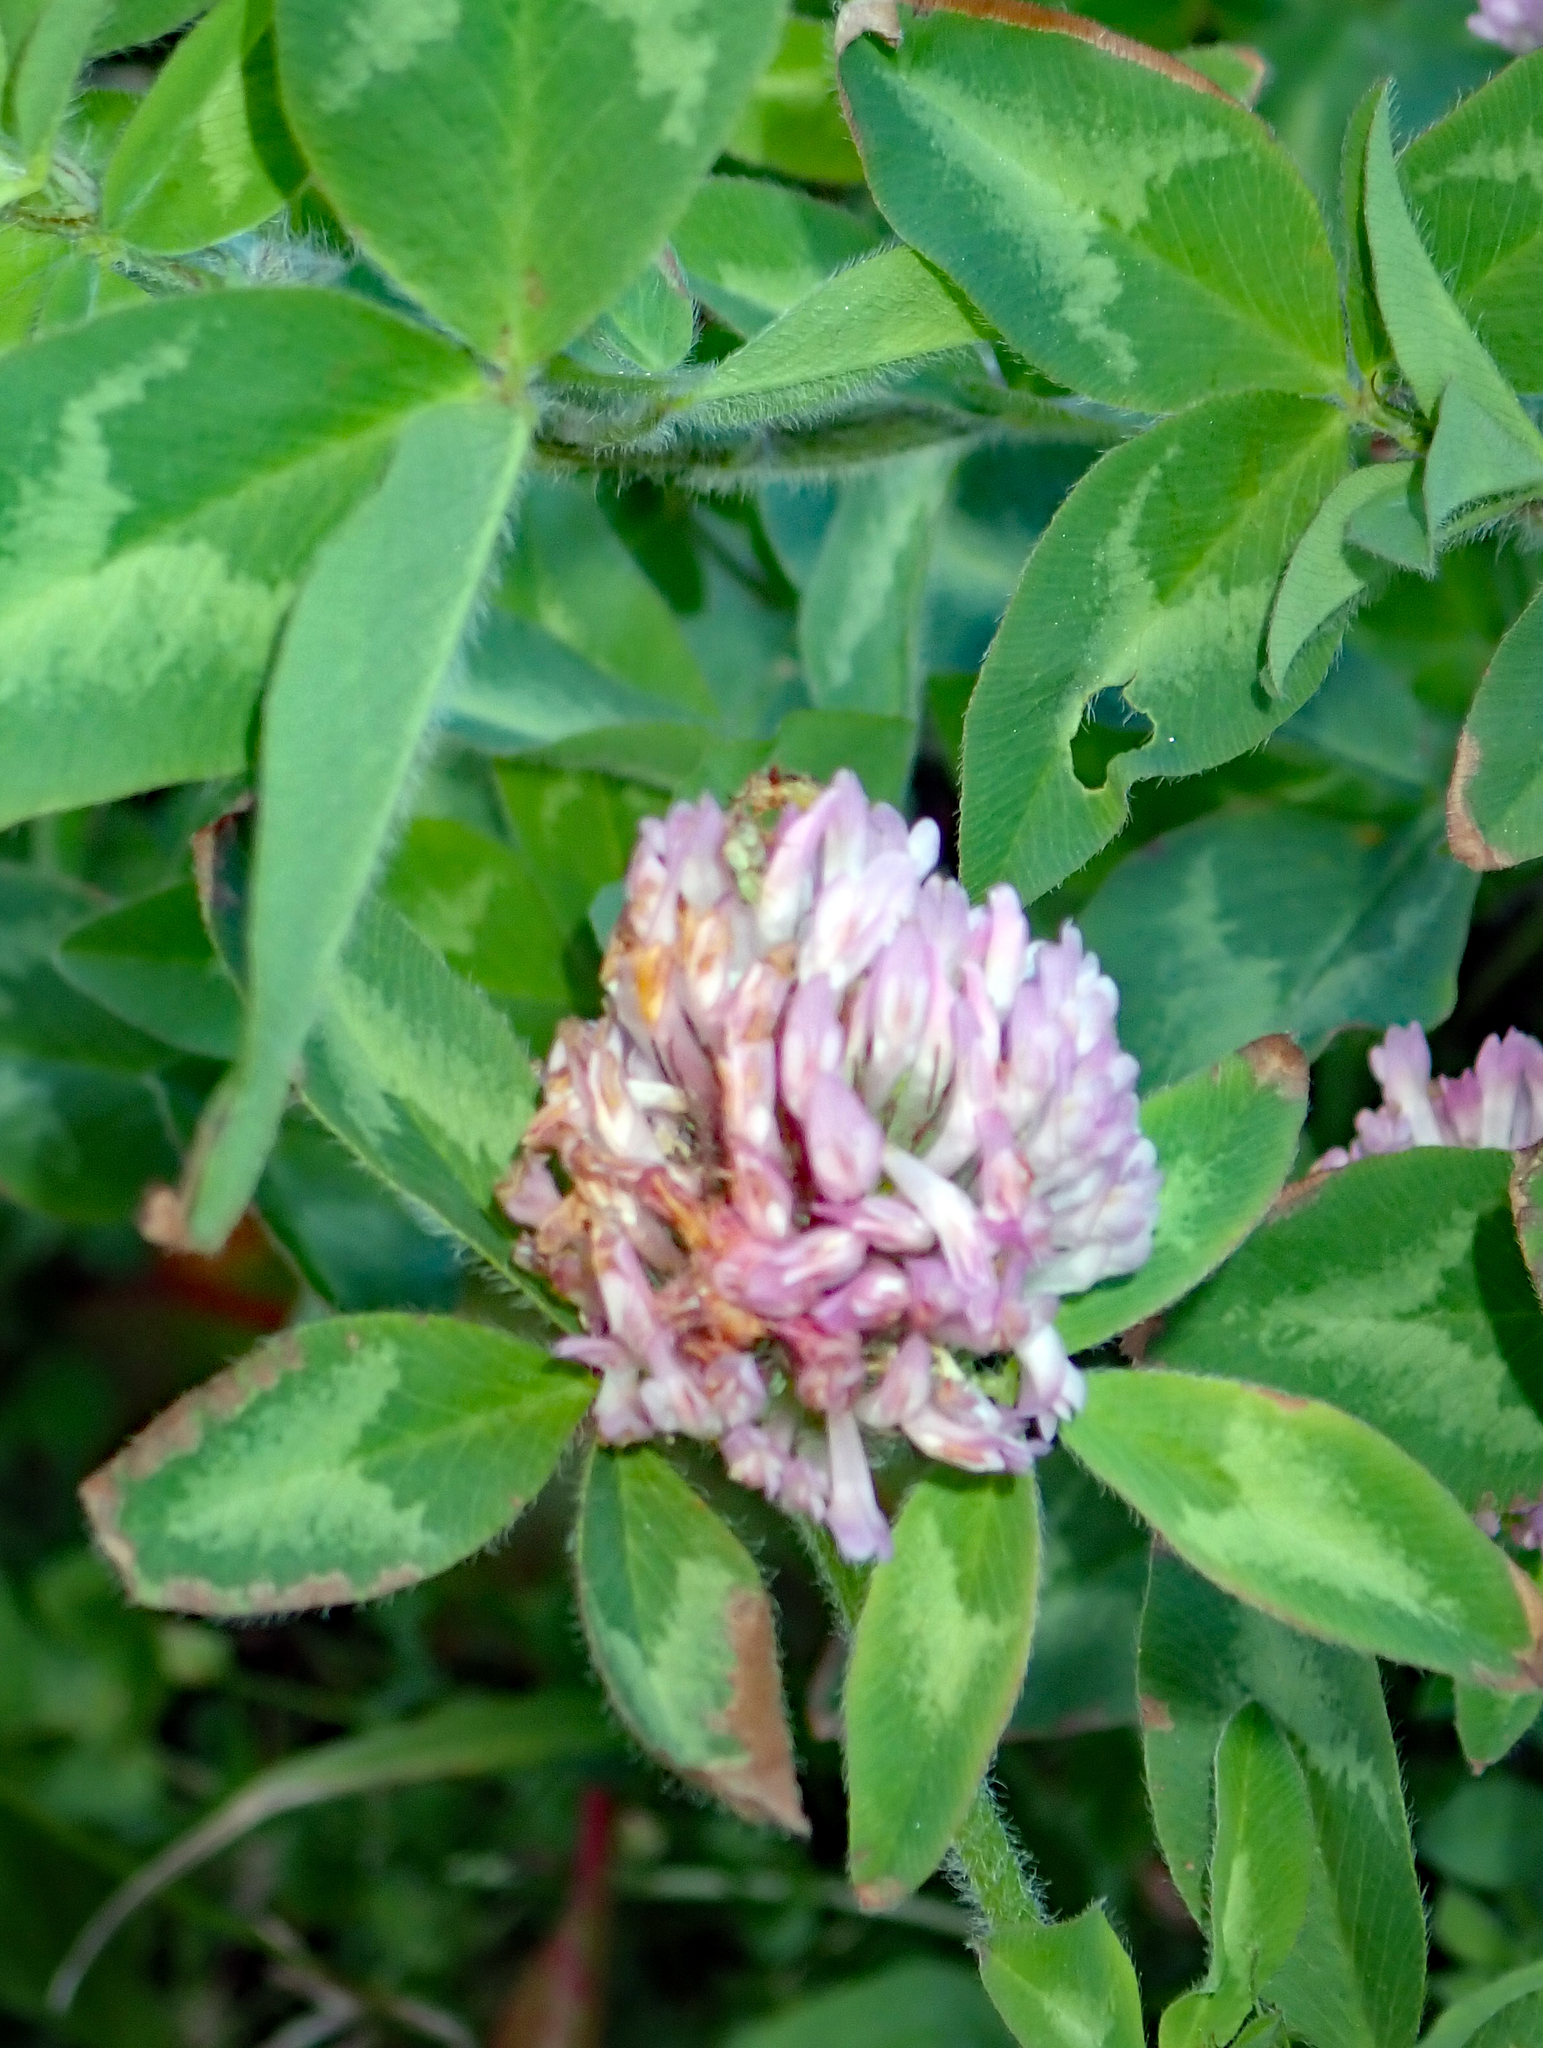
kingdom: Plantae
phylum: Tracheophyta
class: Magnoliopsida
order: Fabales
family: Fabaceae
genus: Trifolium
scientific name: Trifolium pratense
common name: Red clover
